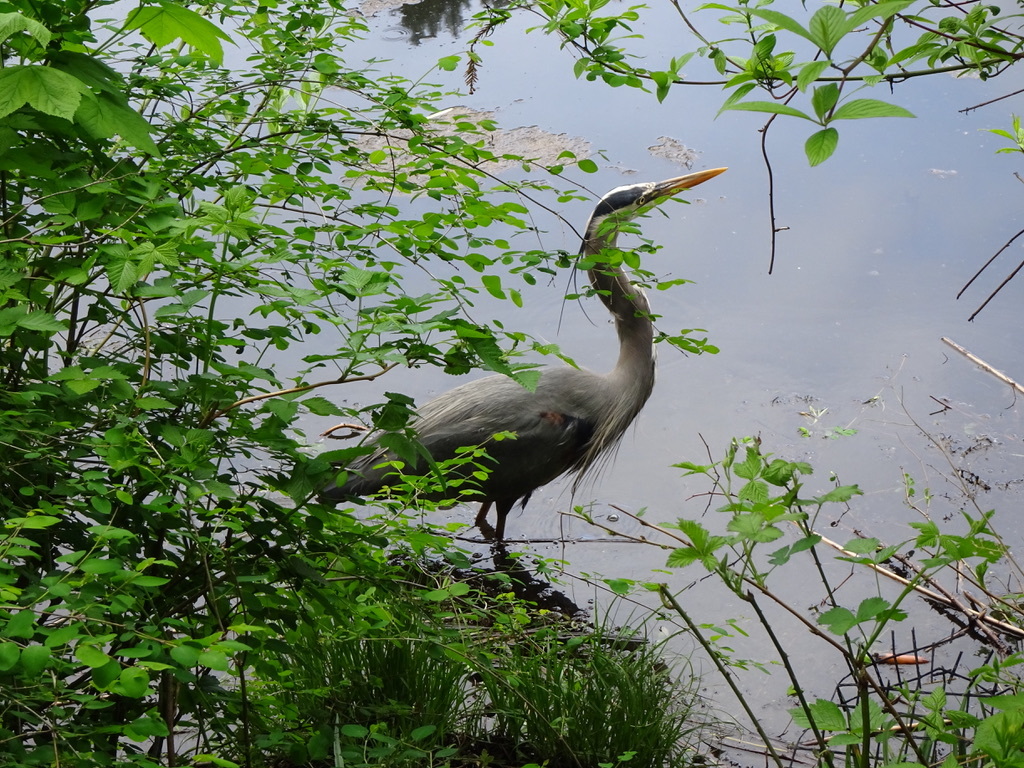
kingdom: Animalia
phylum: Chordata
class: Aves
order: Pelecaniformes
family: Ardeidae
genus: Ardea
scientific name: Ardea herodias
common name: Great blue heron
